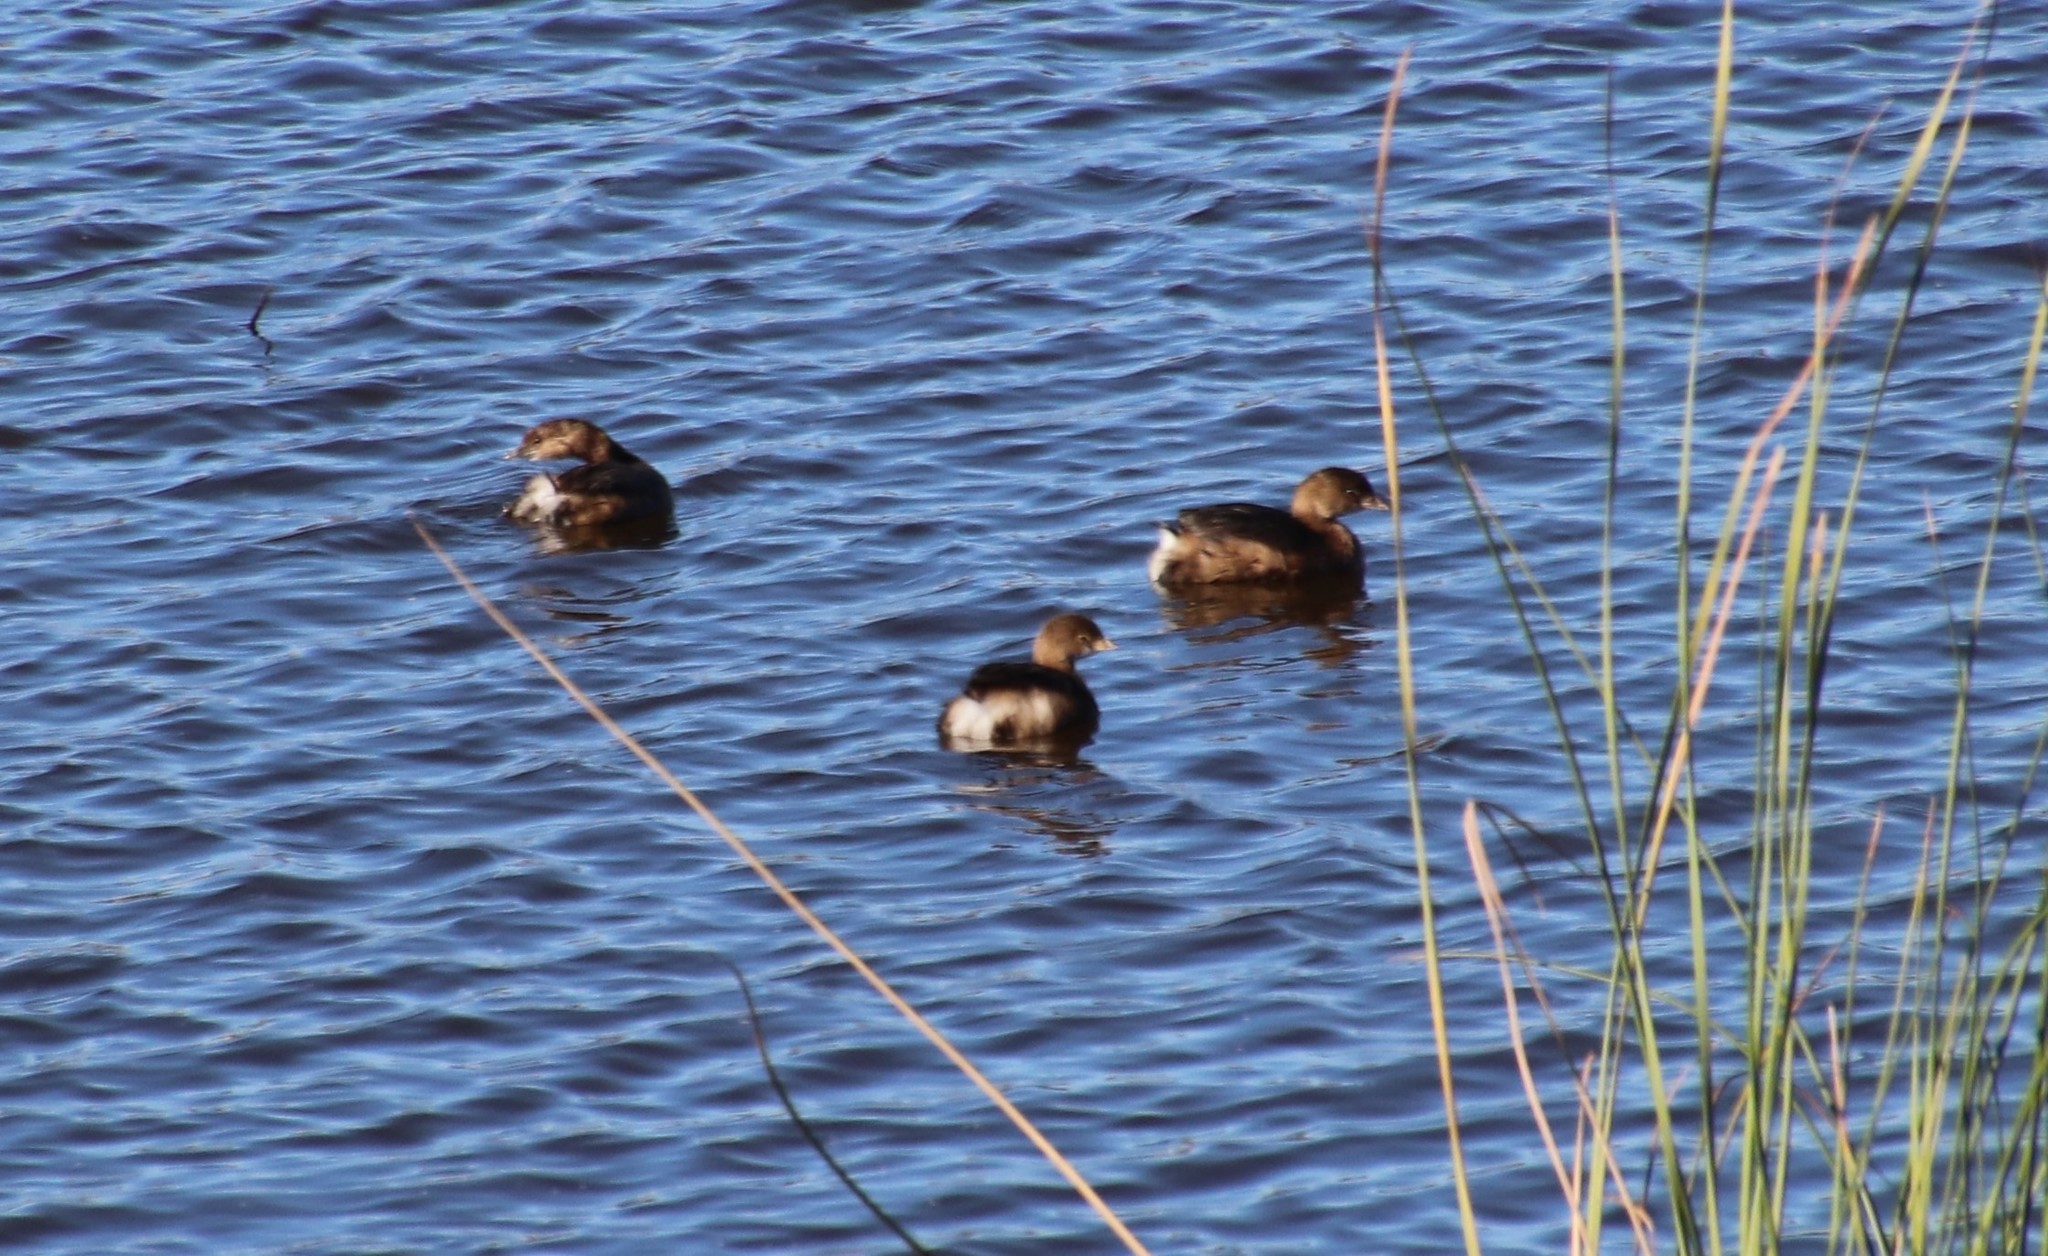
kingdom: Animalia
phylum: Chordata
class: Aves
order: Podicipediformes
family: Podicipedidae
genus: Podilymbus
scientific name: Podilymbus podiceps
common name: Pied-billed grebe
